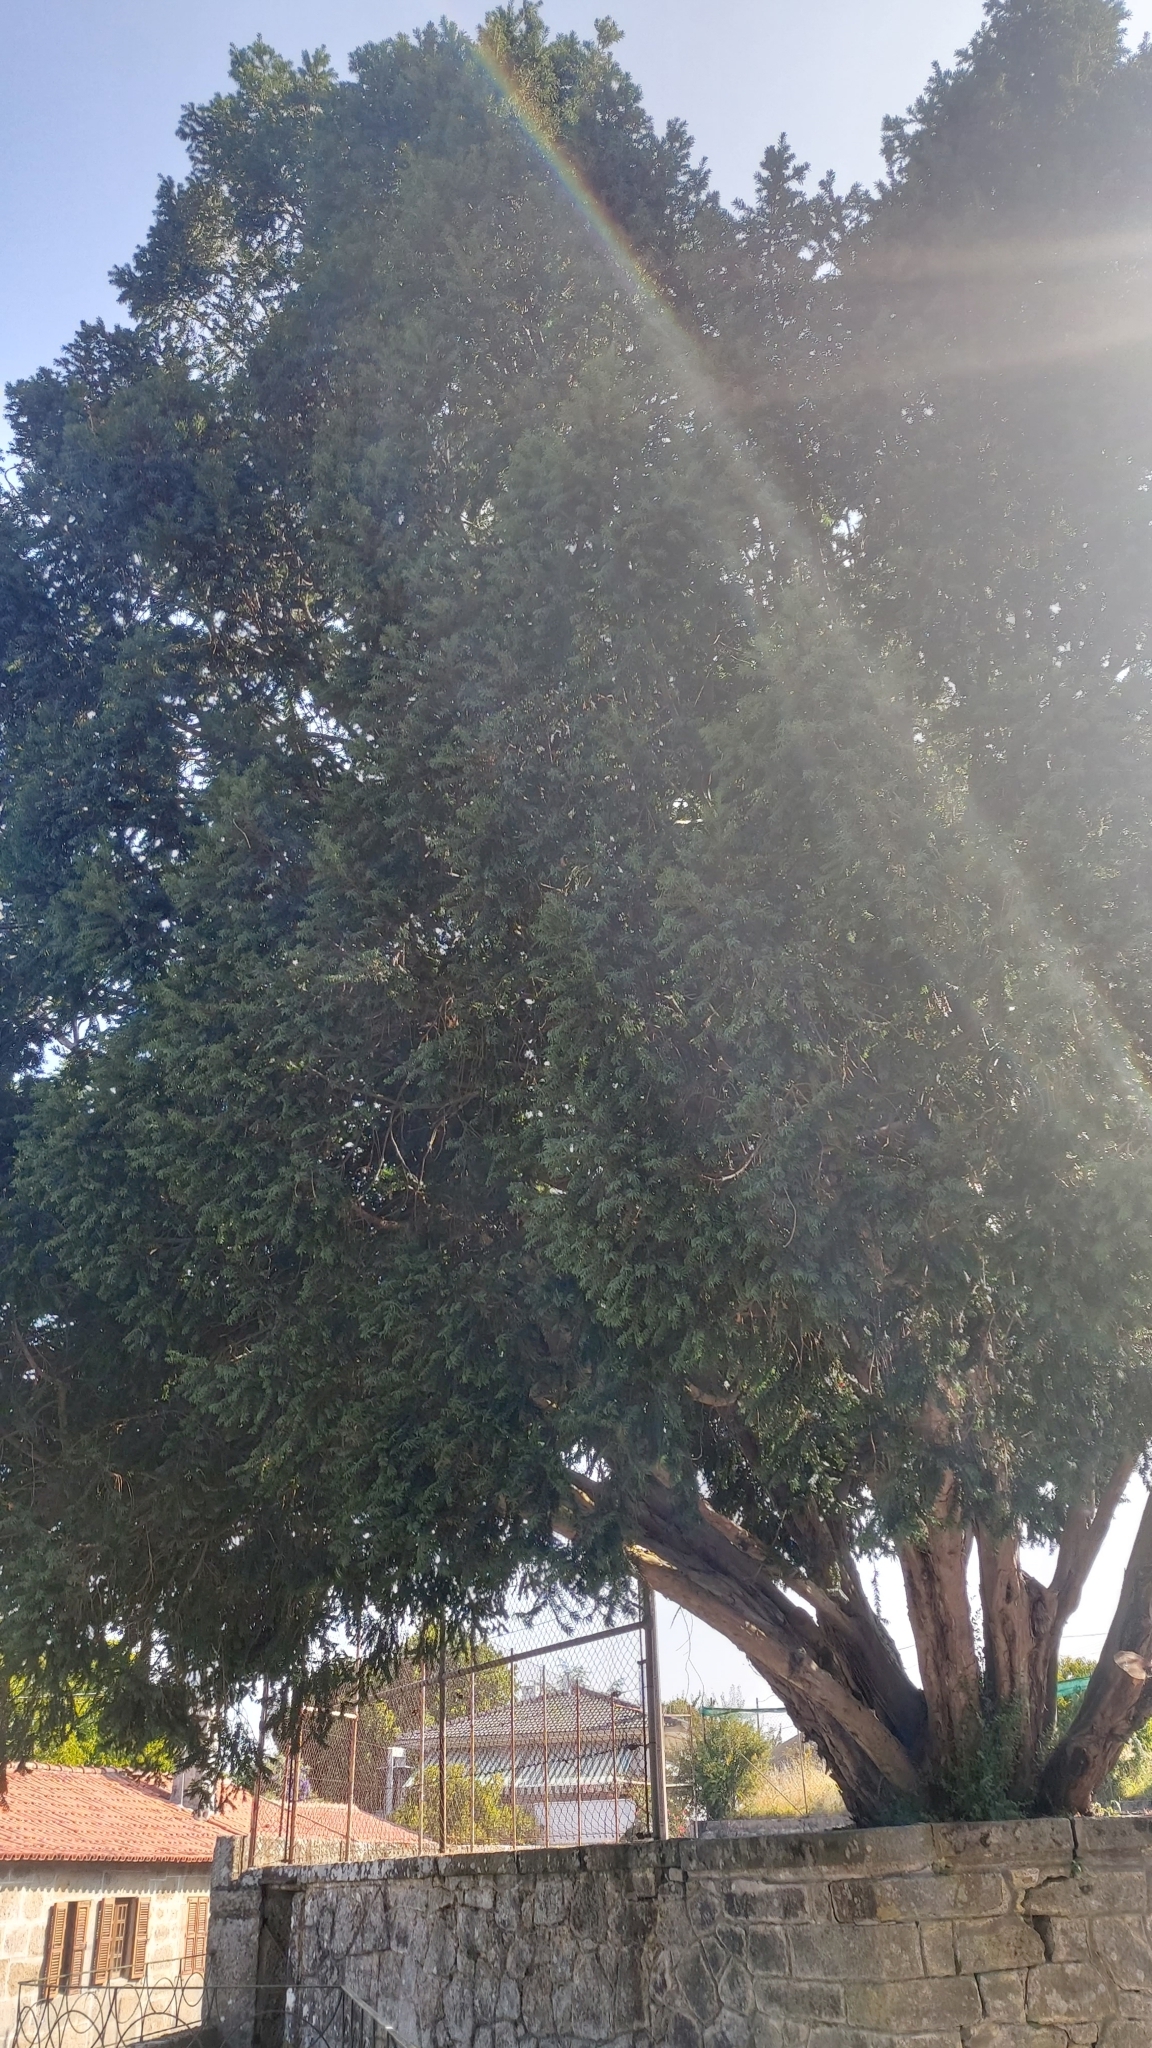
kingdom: Plantae
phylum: Tracheophyta
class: Pinopsida
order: Pinales
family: Taxaceae
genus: Taxus
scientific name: Taxus baccata
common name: Yew
